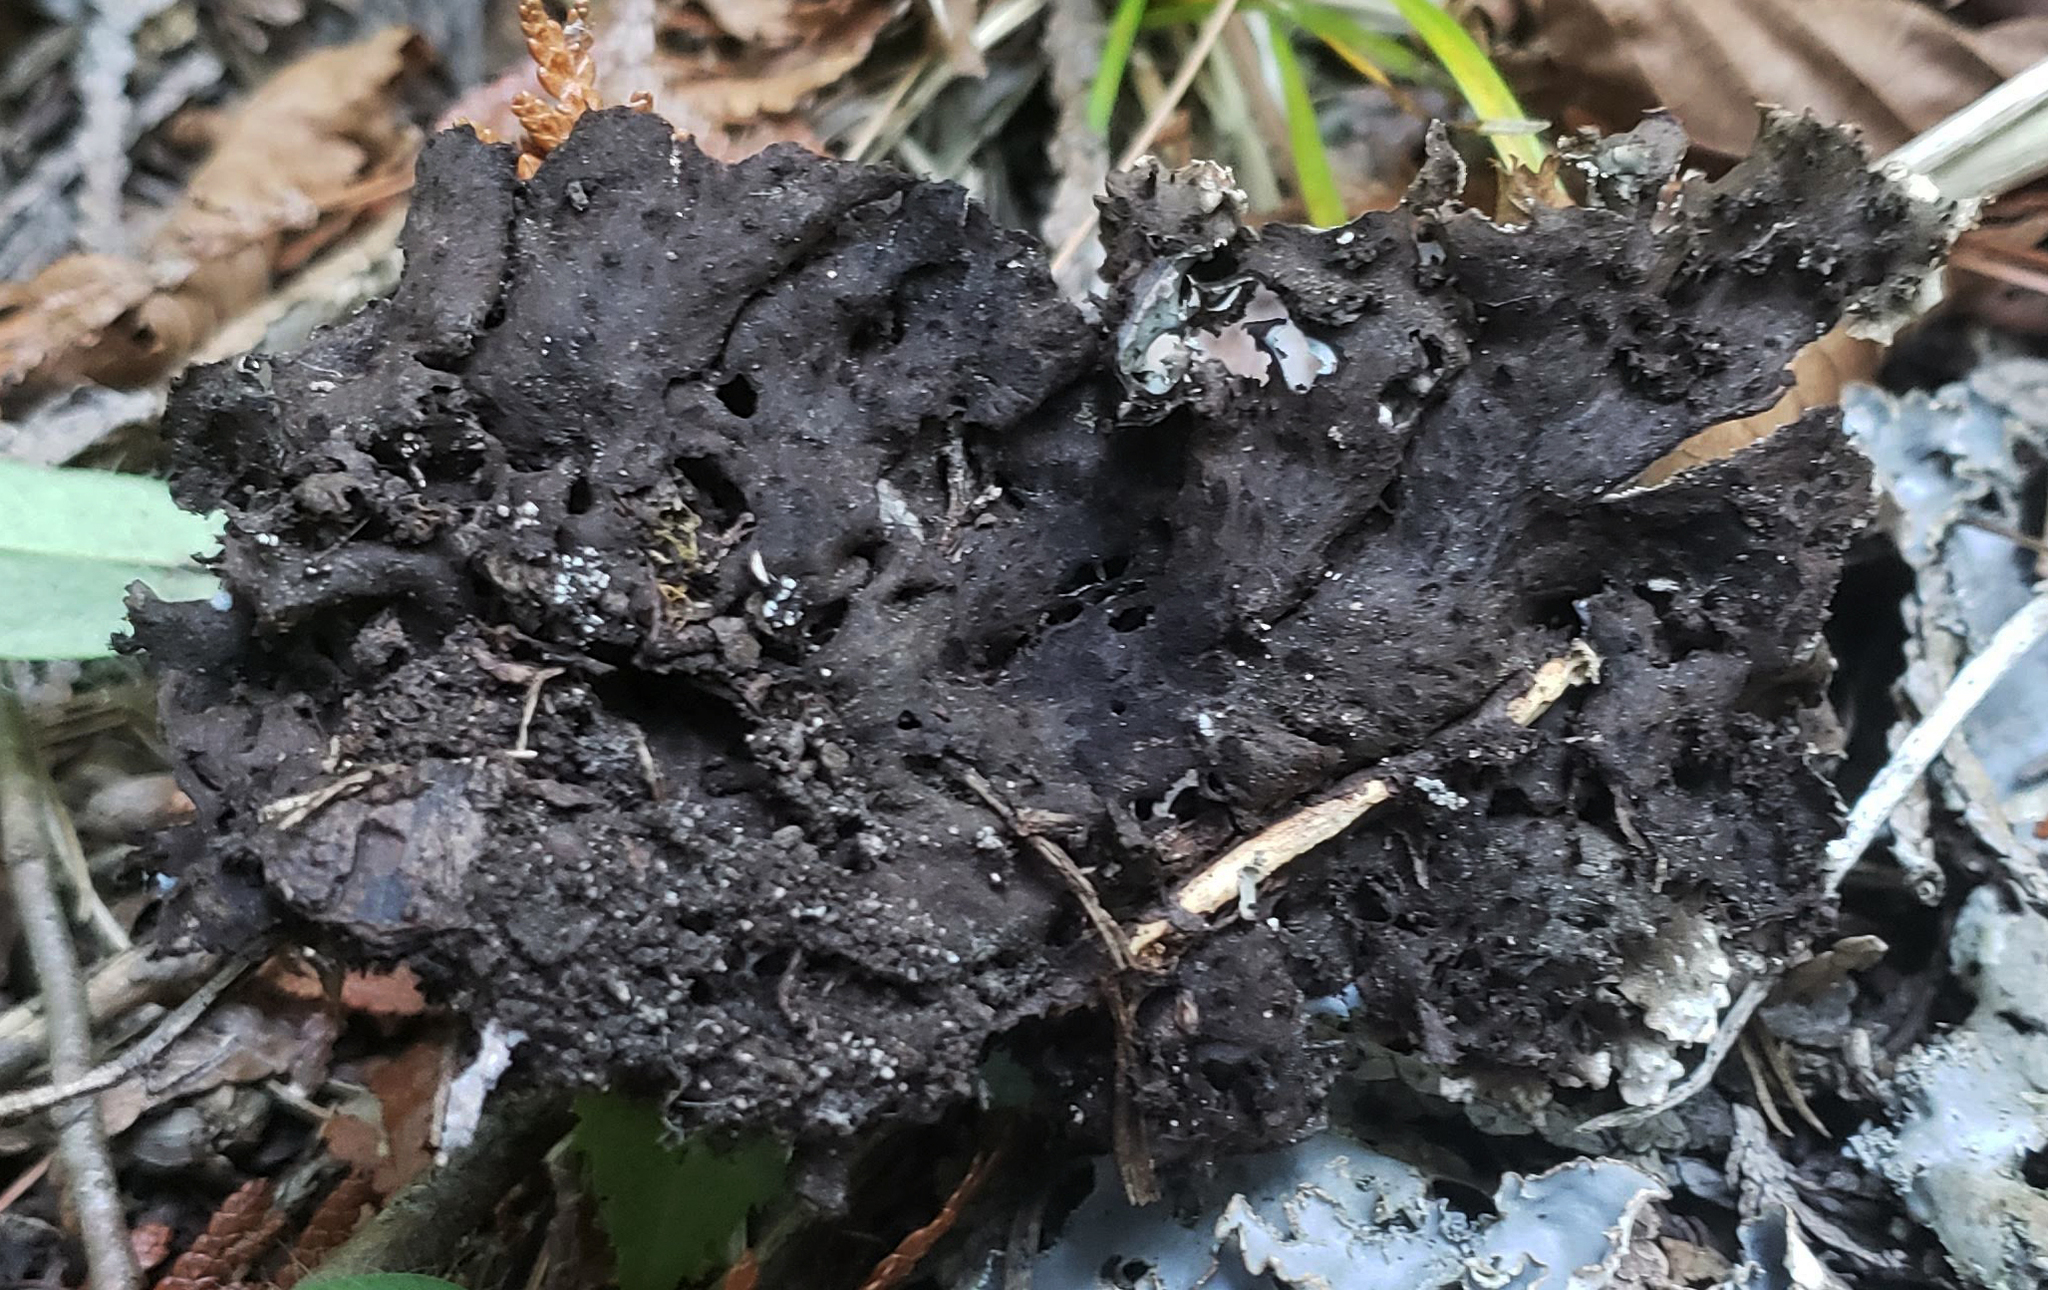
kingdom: Fungi
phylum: Ascomycota
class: Lecanoromycetes
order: Peltigerales
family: Peltigeraceae
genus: Peltigera
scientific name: Peltigera elisabethae
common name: Concentric pelt lichen
